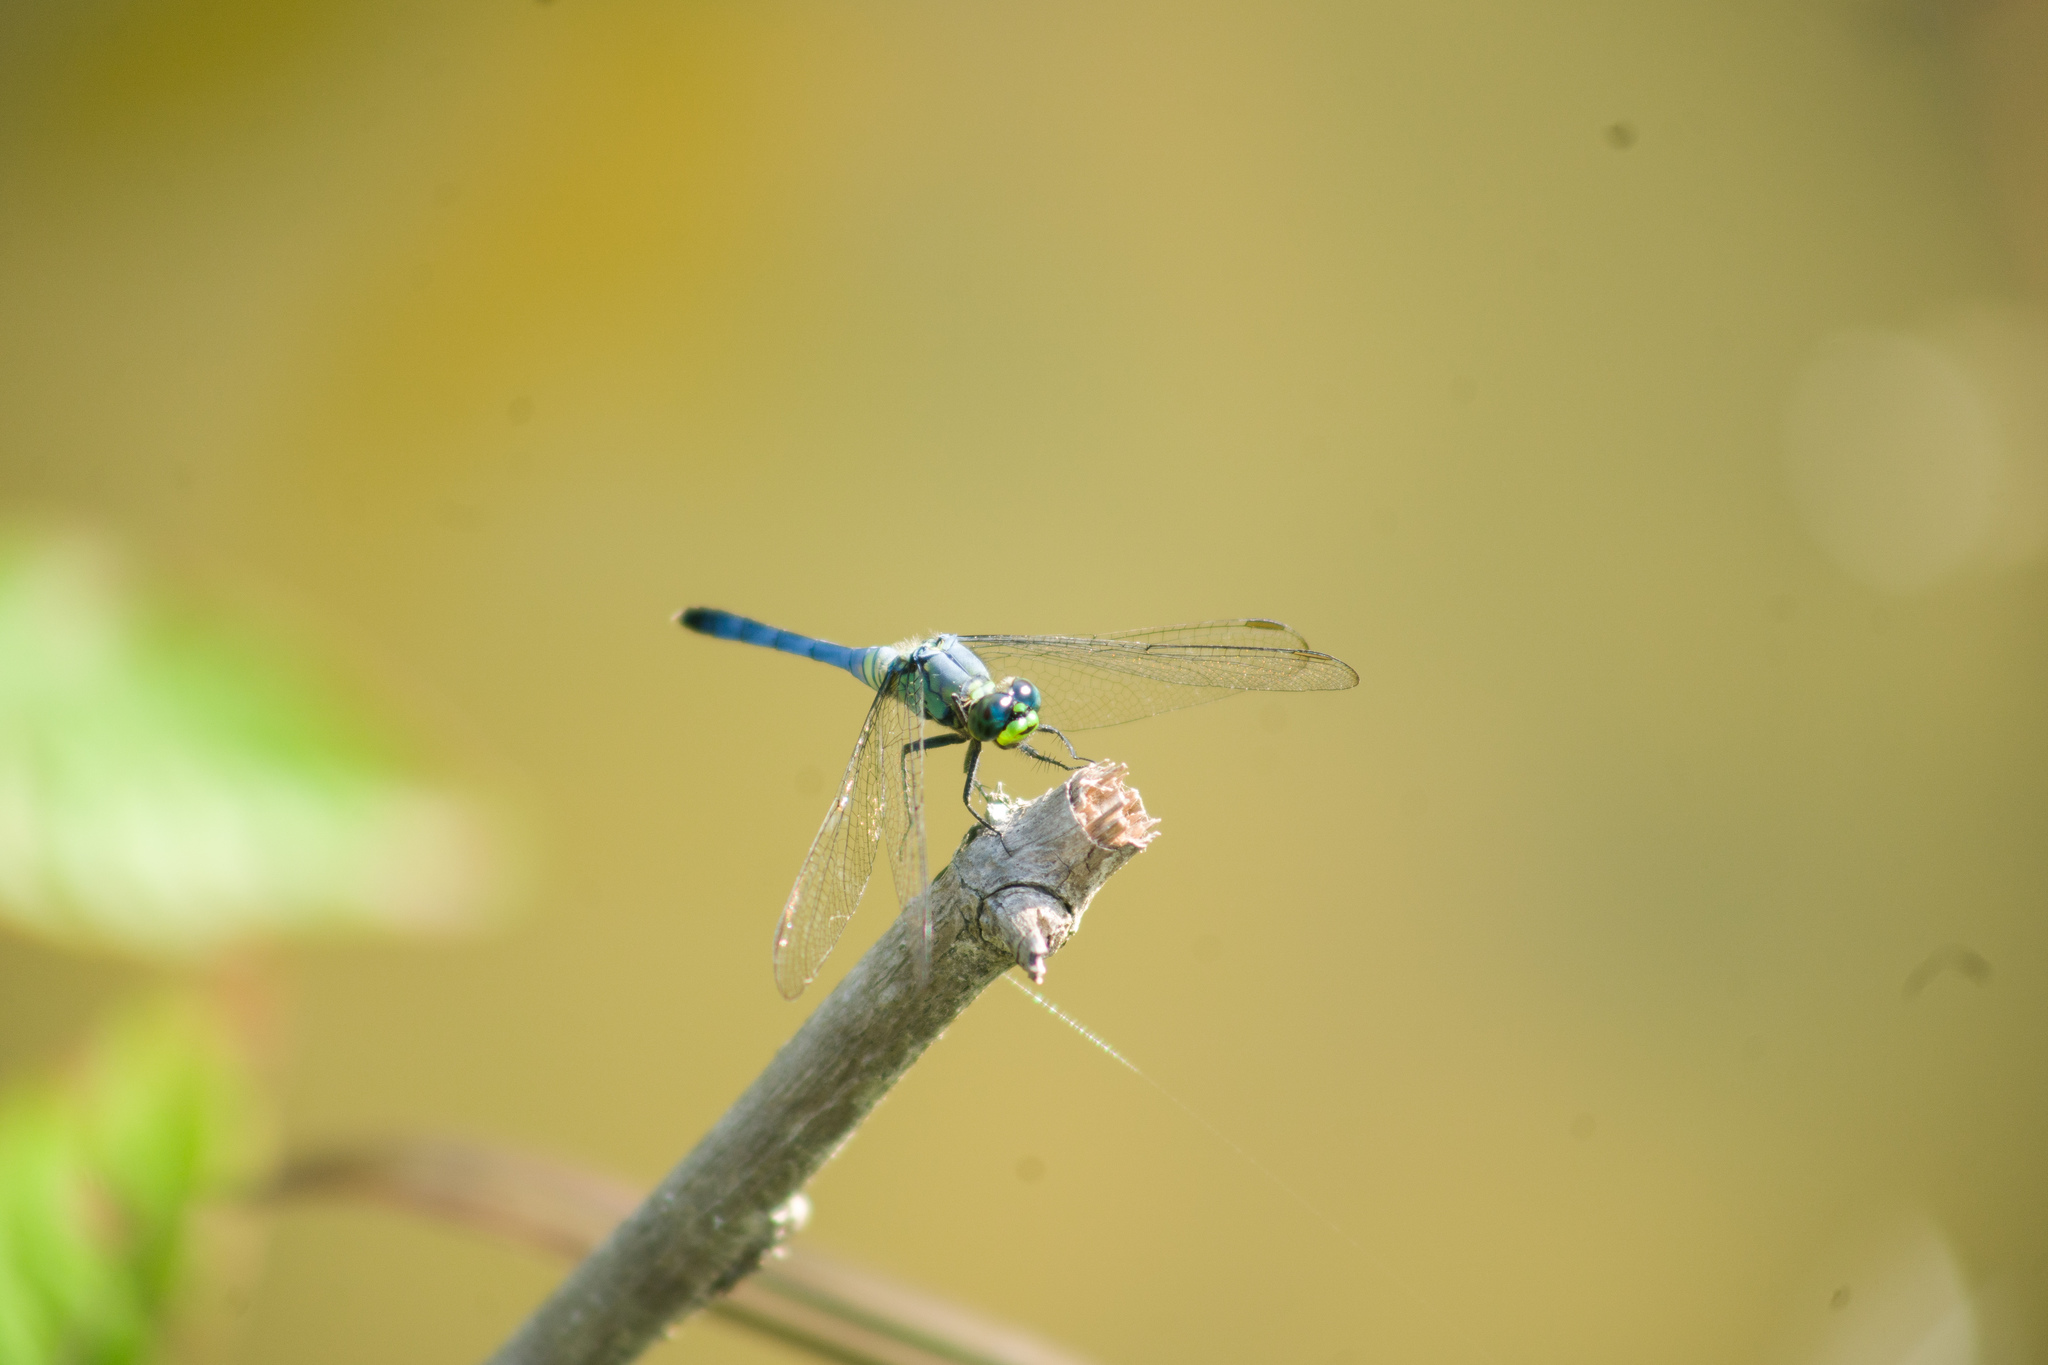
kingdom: Animalia
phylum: Arthropoda
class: Insecta
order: Odonata
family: Libellulidae
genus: Erythemis
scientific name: Erythemis simplicicollis
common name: Eastern pondhawk
